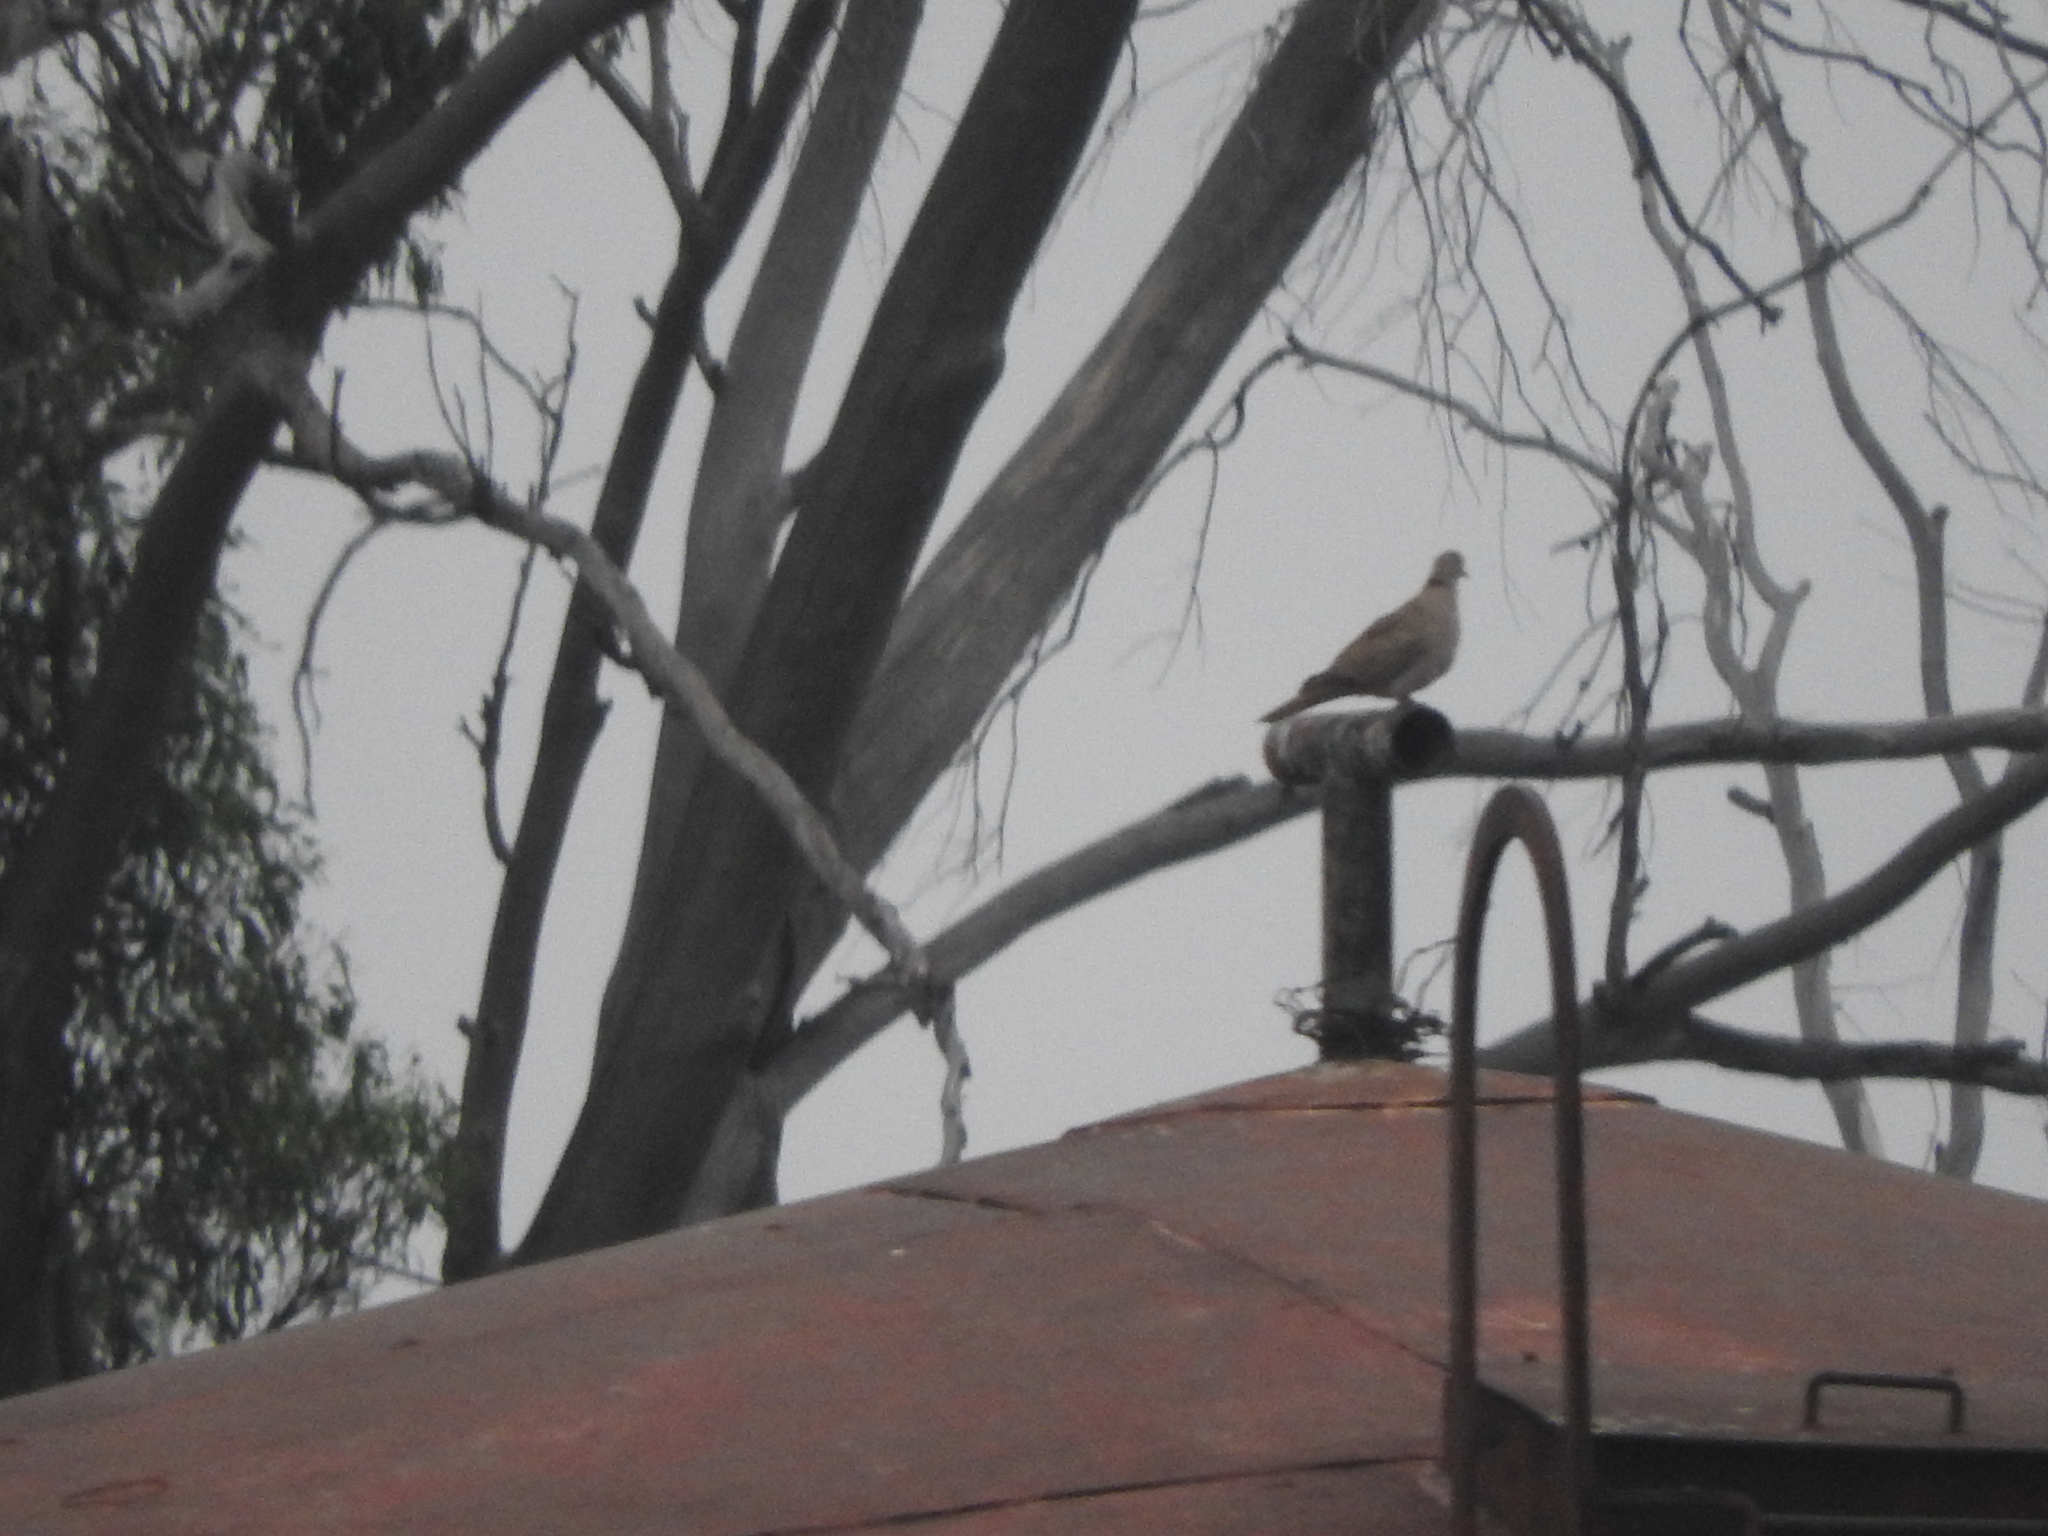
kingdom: Animalia
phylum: Chordata
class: Aves
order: Columbiformes
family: Columbidae
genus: Streptopelia
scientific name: Streptopelia decaocto
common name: Eurasian collared dove
